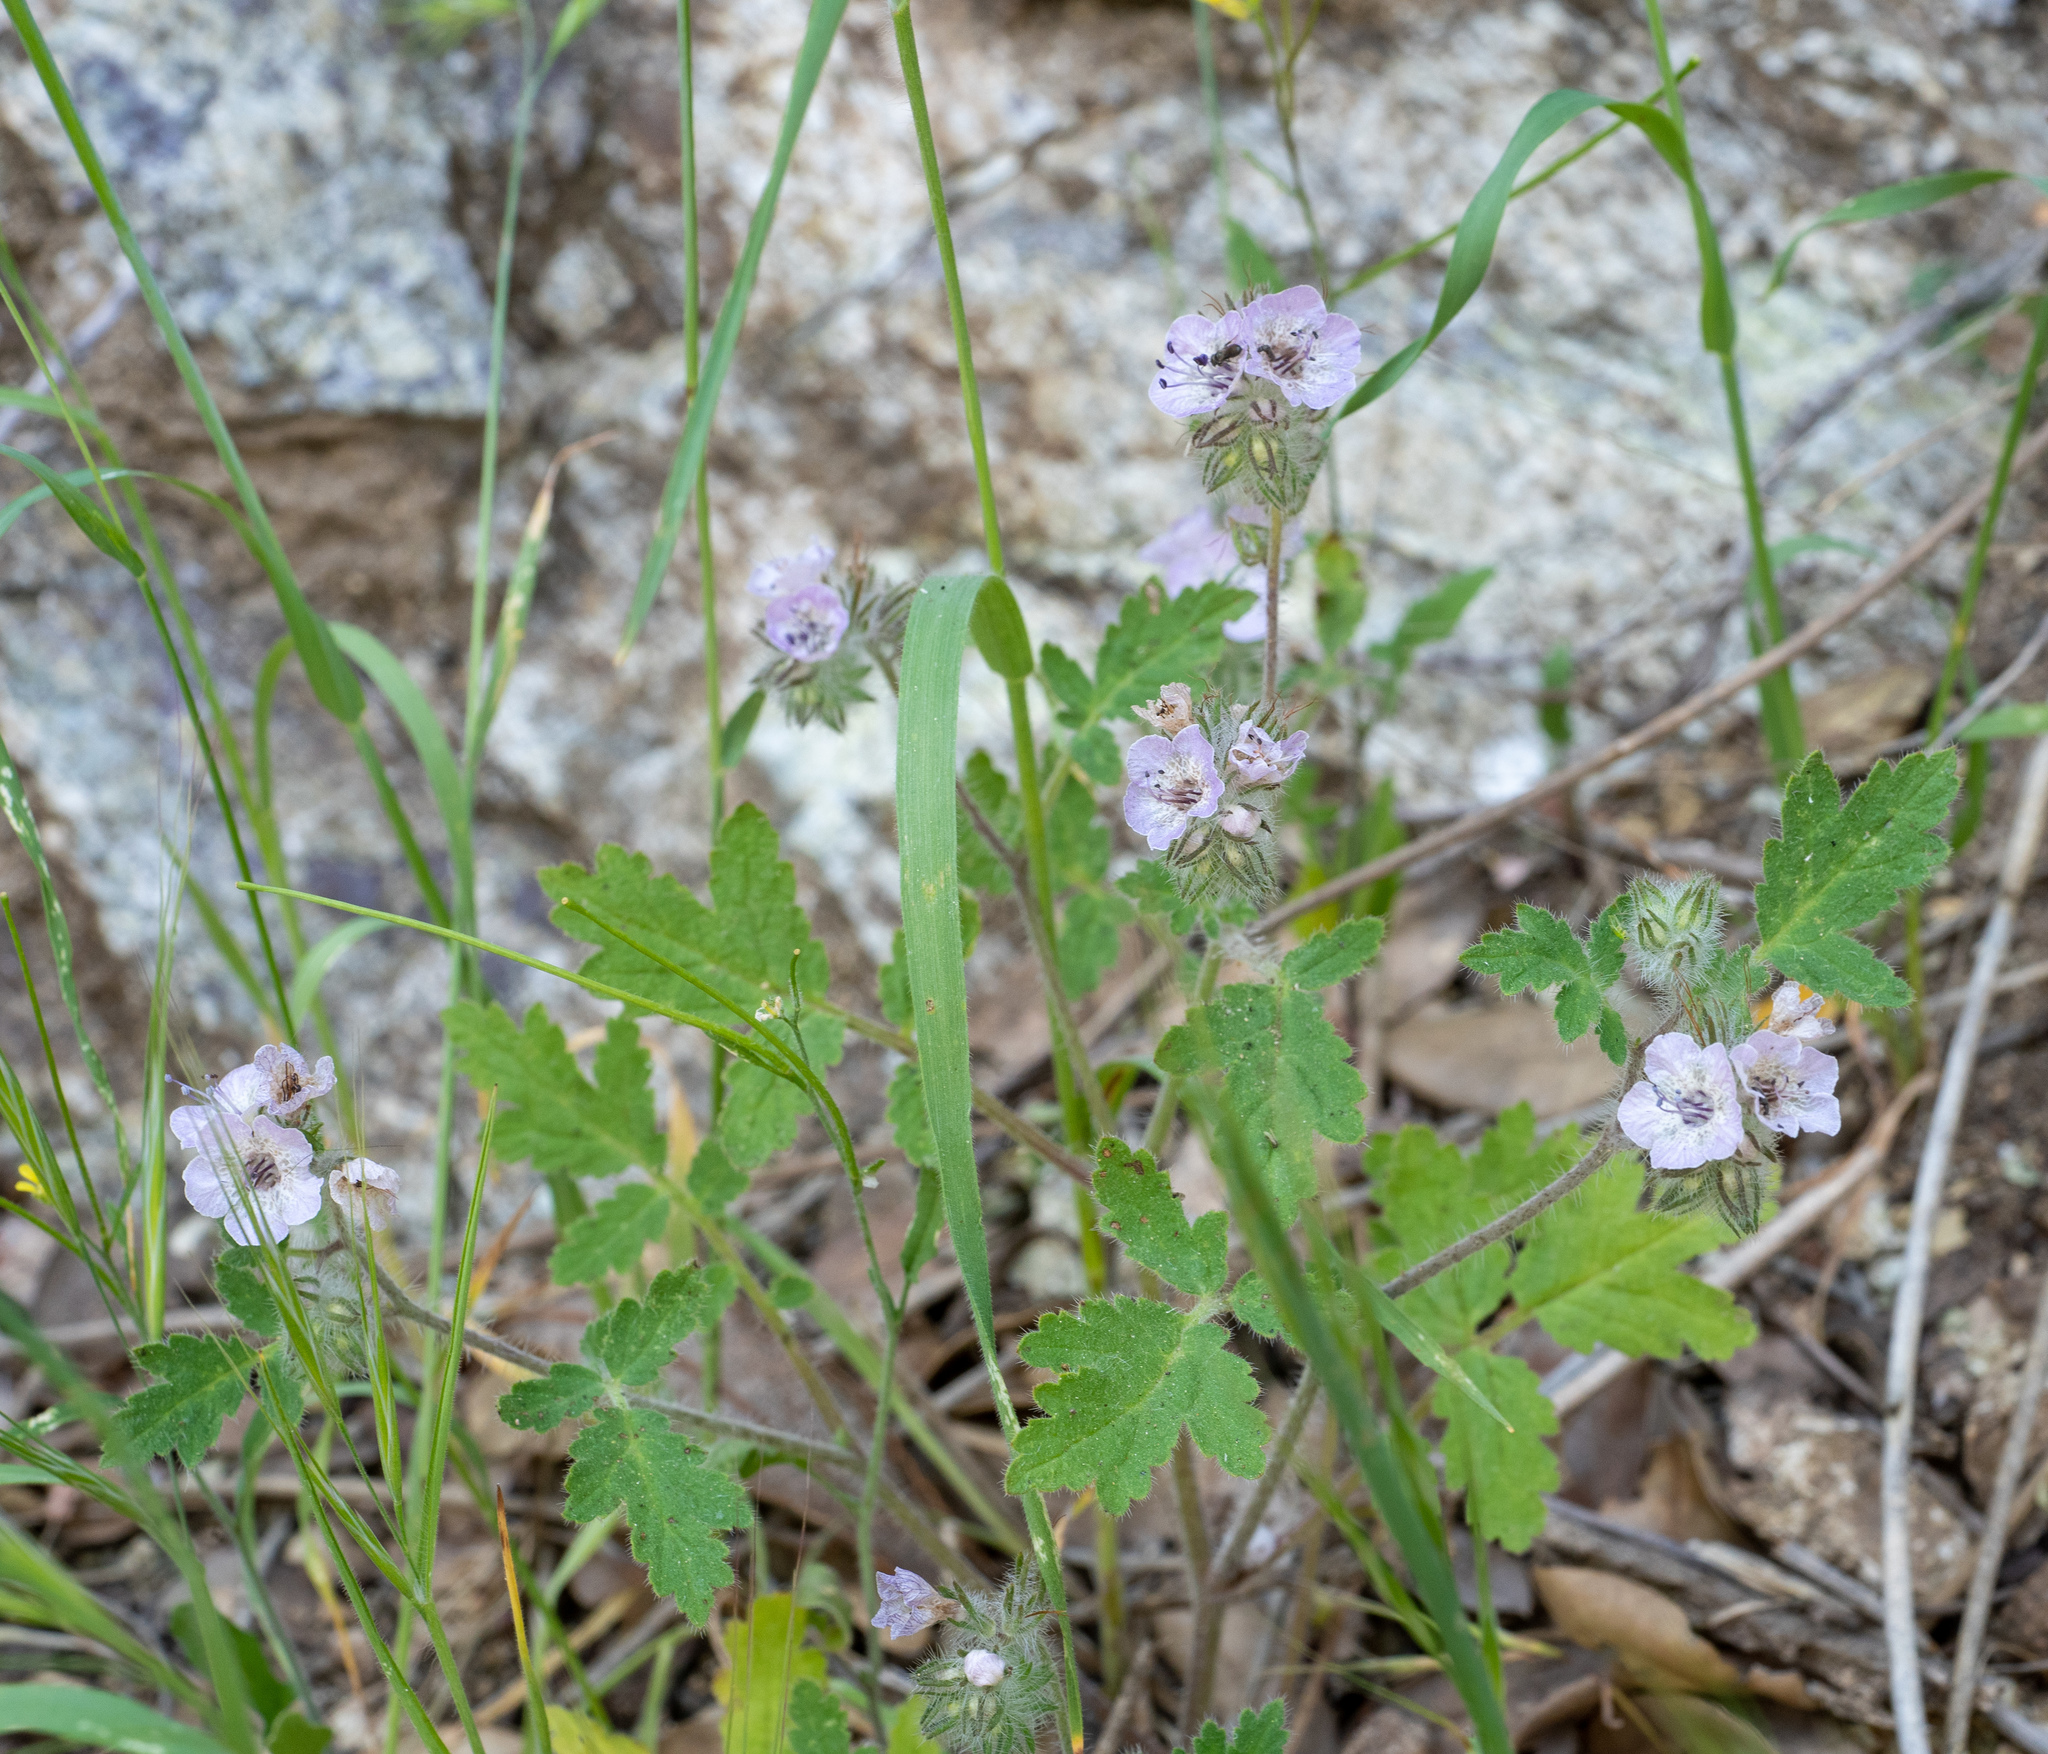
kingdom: Plantae
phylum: Tracheophyta
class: Magnoliopsida
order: Boraginales
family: Hydrophyllaceae
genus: Phacelia
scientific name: Phacelia cicutaria
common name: Caterpillar phacelia
